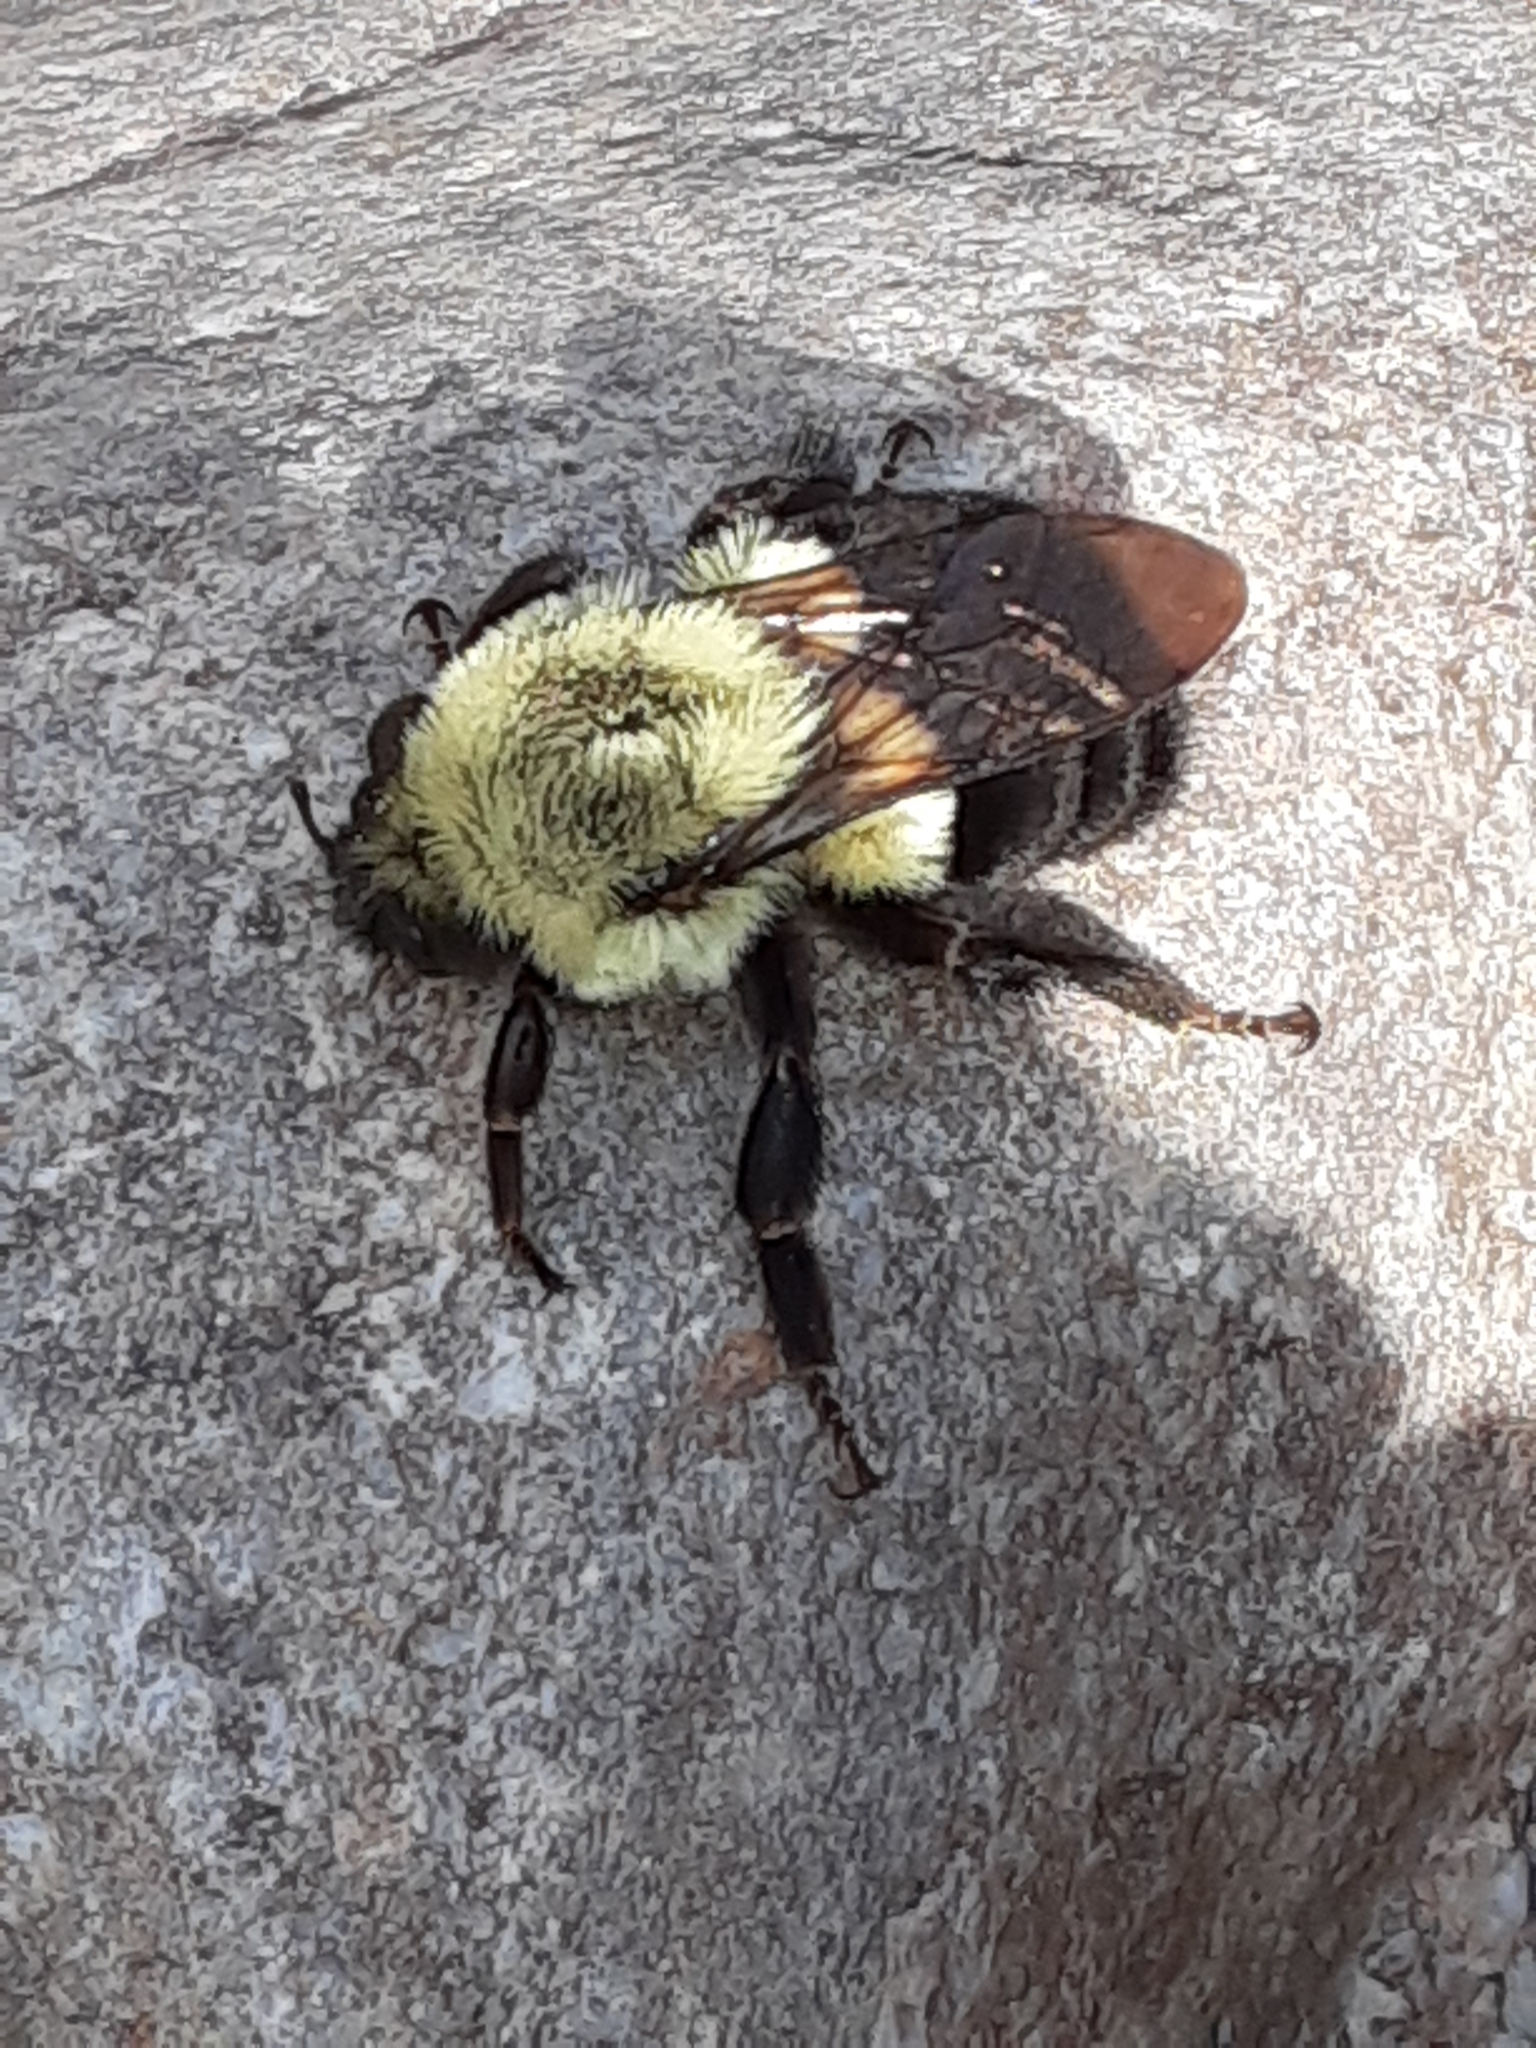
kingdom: Animalia
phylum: Arthropoda
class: Insecta
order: Hymenoptera
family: Apidae
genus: Bombus
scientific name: Bombus impatiens
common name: Common eastern bumble bee
